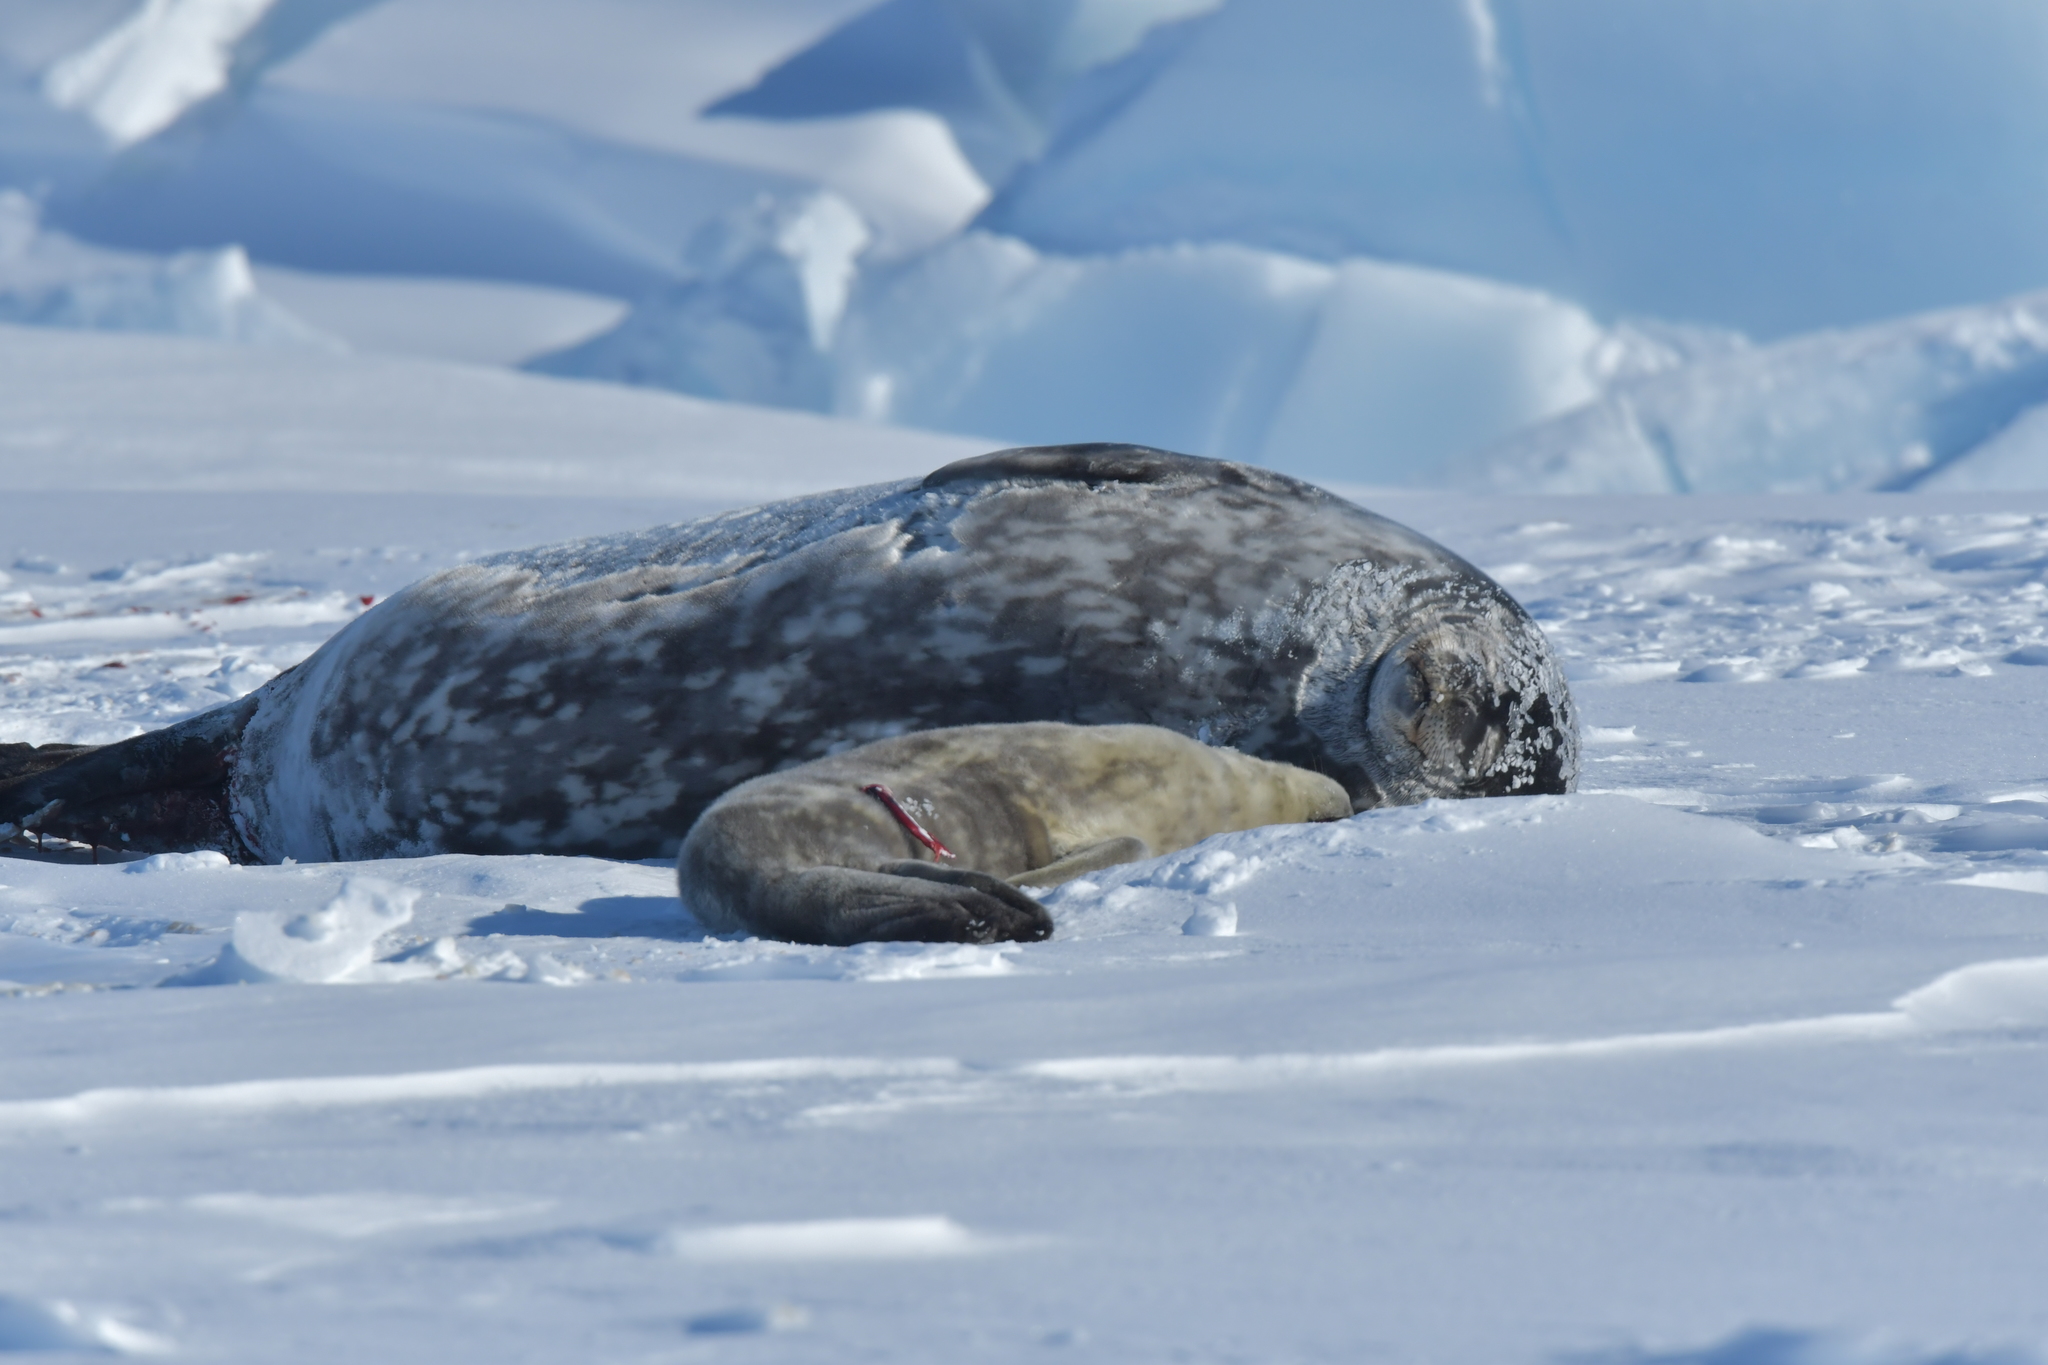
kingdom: Animalia
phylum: Chordata
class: Mammalia
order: Carnivora
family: Phocidae
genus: Leptonychotes
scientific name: Leptonychotes weddellii
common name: Weddell seal
